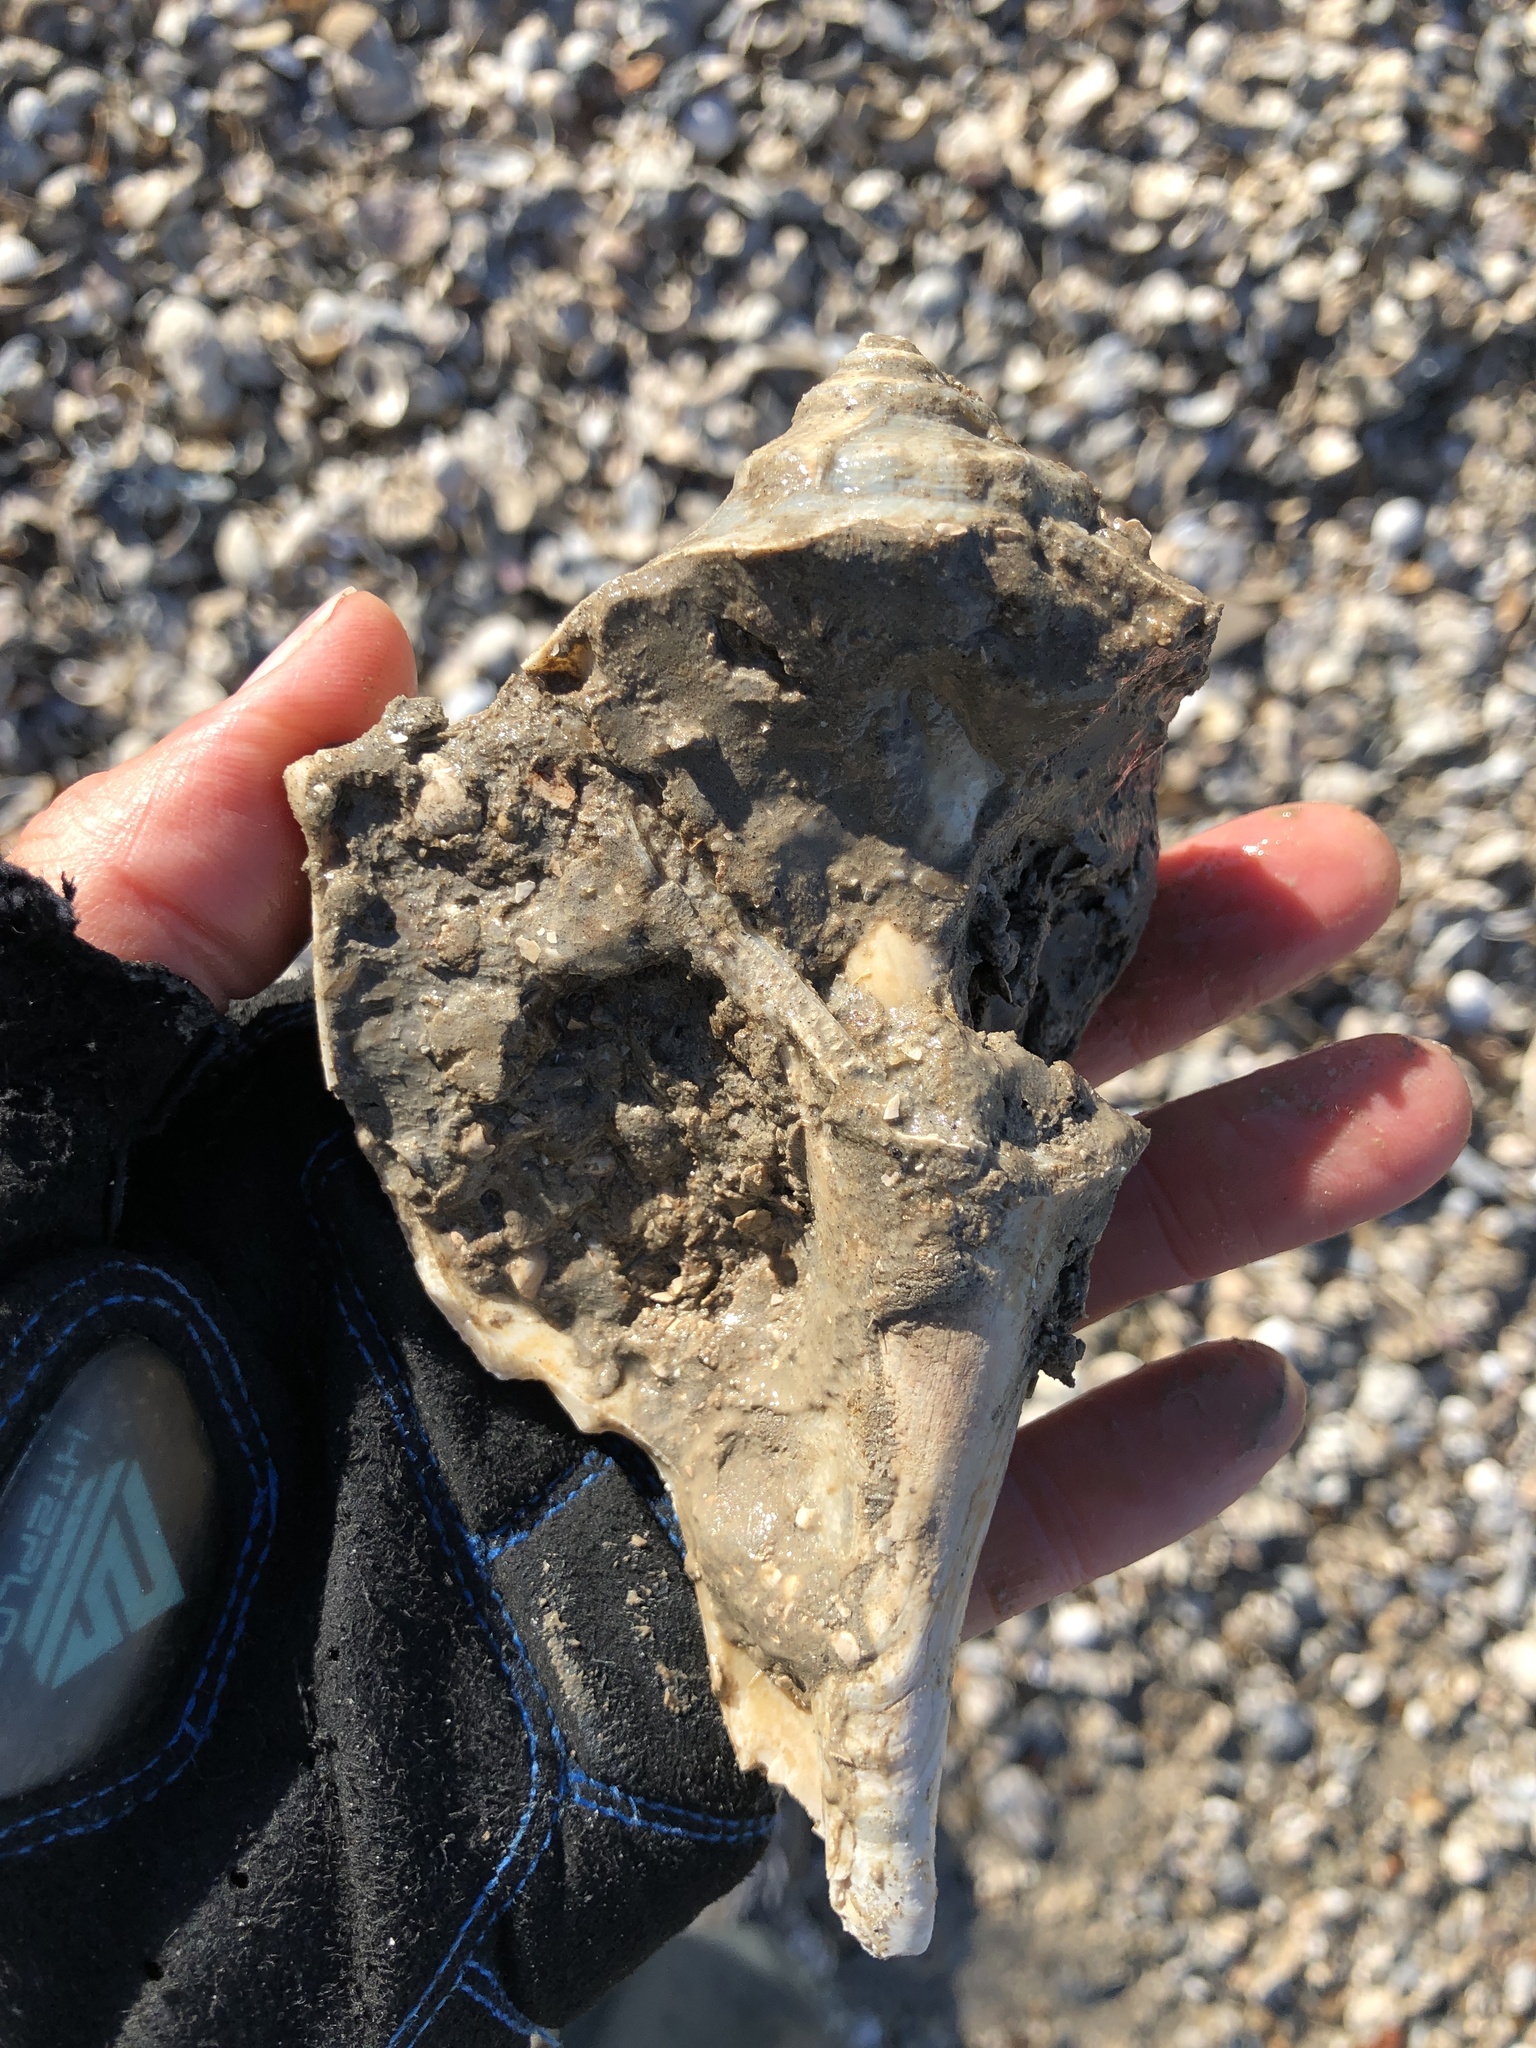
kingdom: Animalia
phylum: Mollusca
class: Gastropoda
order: Neogastropoda
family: Busyconidae
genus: Sinistrofulgur
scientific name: Sinistrofulgur pulleyi
